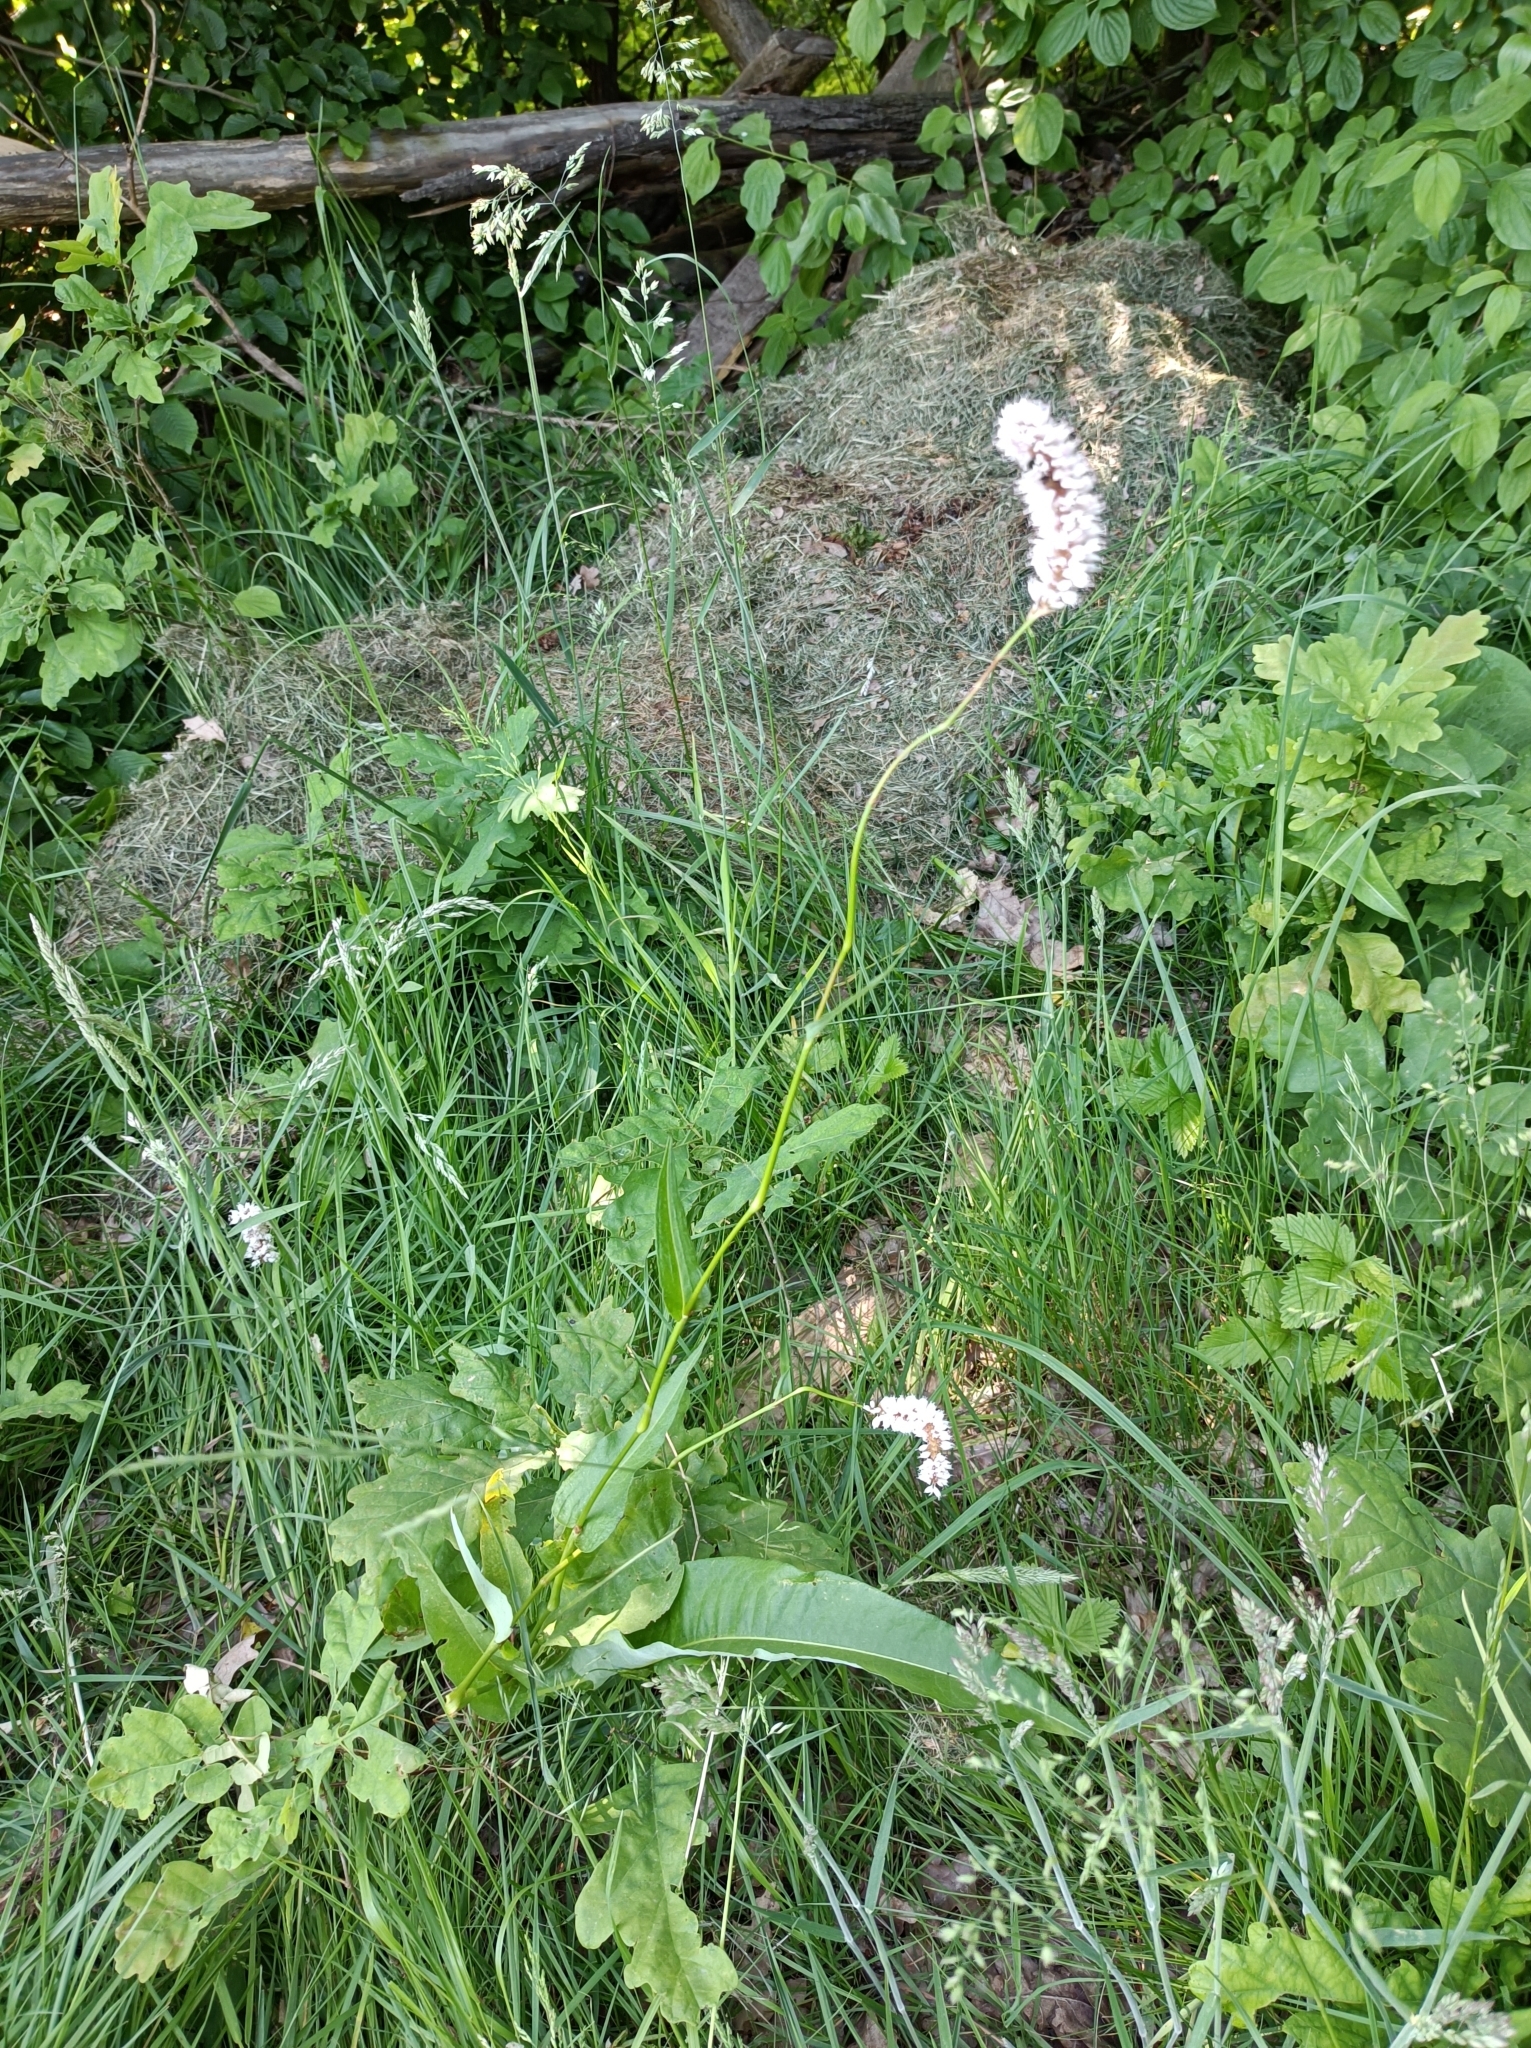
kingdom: Plantae
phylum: Tracheophyta
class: Magnoliopsida
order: Caryophyllales
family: Polygonaceae
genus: Bistorta
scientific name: Bistorta officinalis
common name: Common bistort
